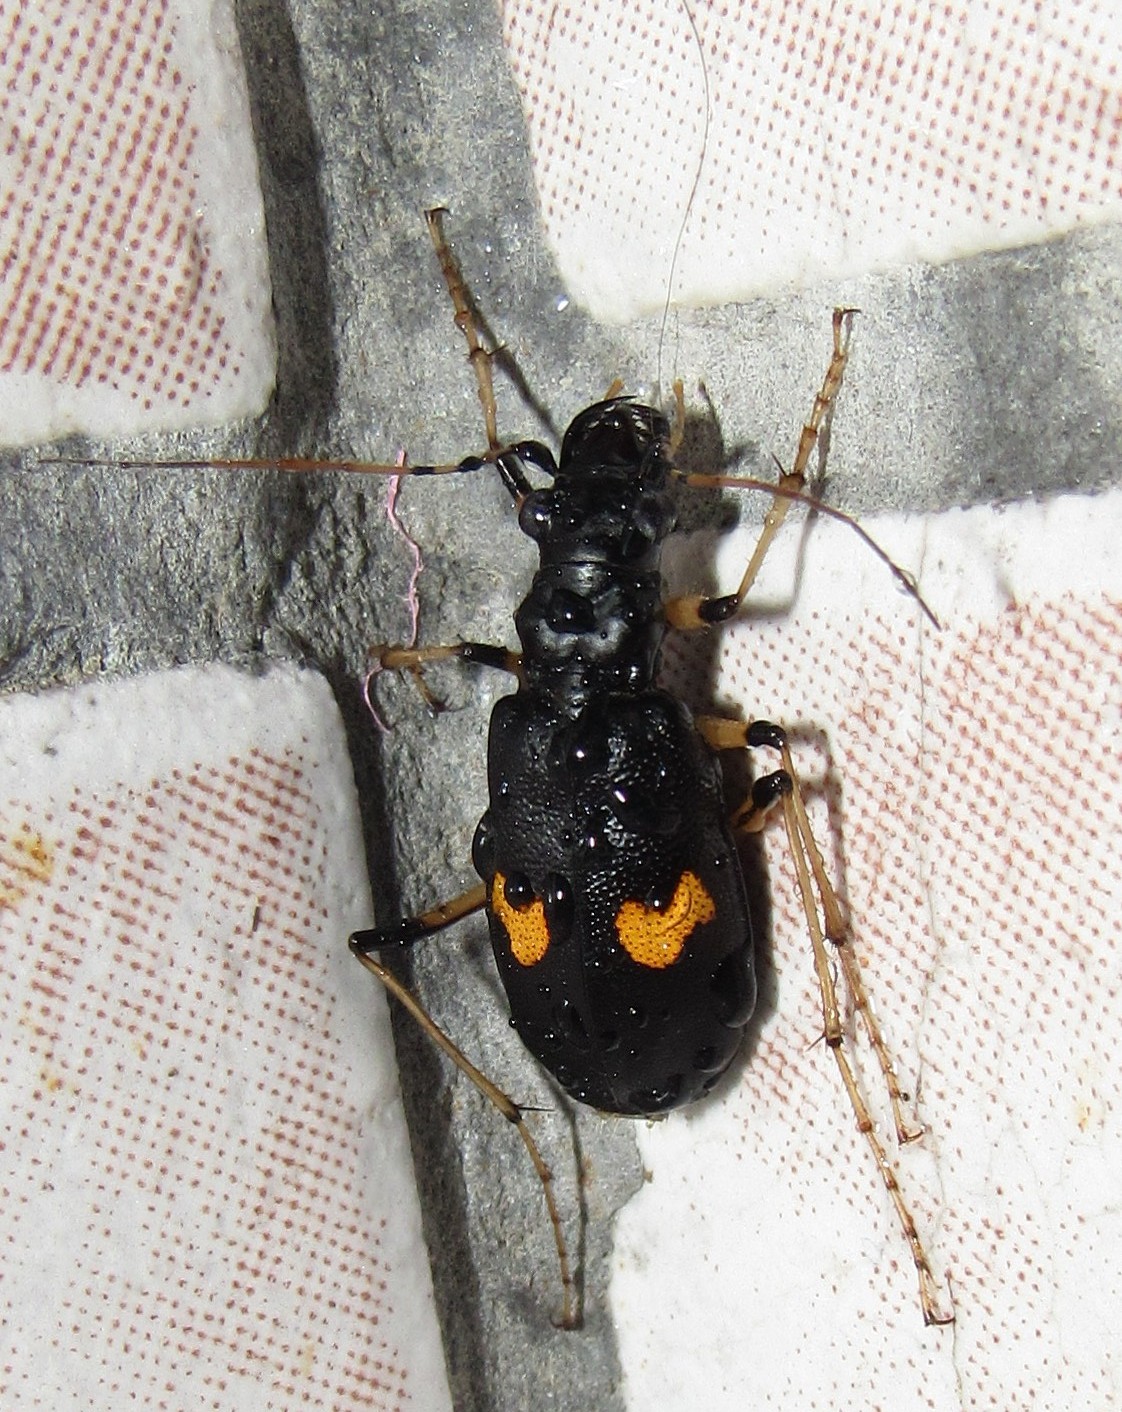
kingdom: Animalia
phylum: Arthropoda
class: Insecta
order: Coleoptera
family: Carabidae
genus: Oxycheila
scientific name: Oxycheila femoralis
